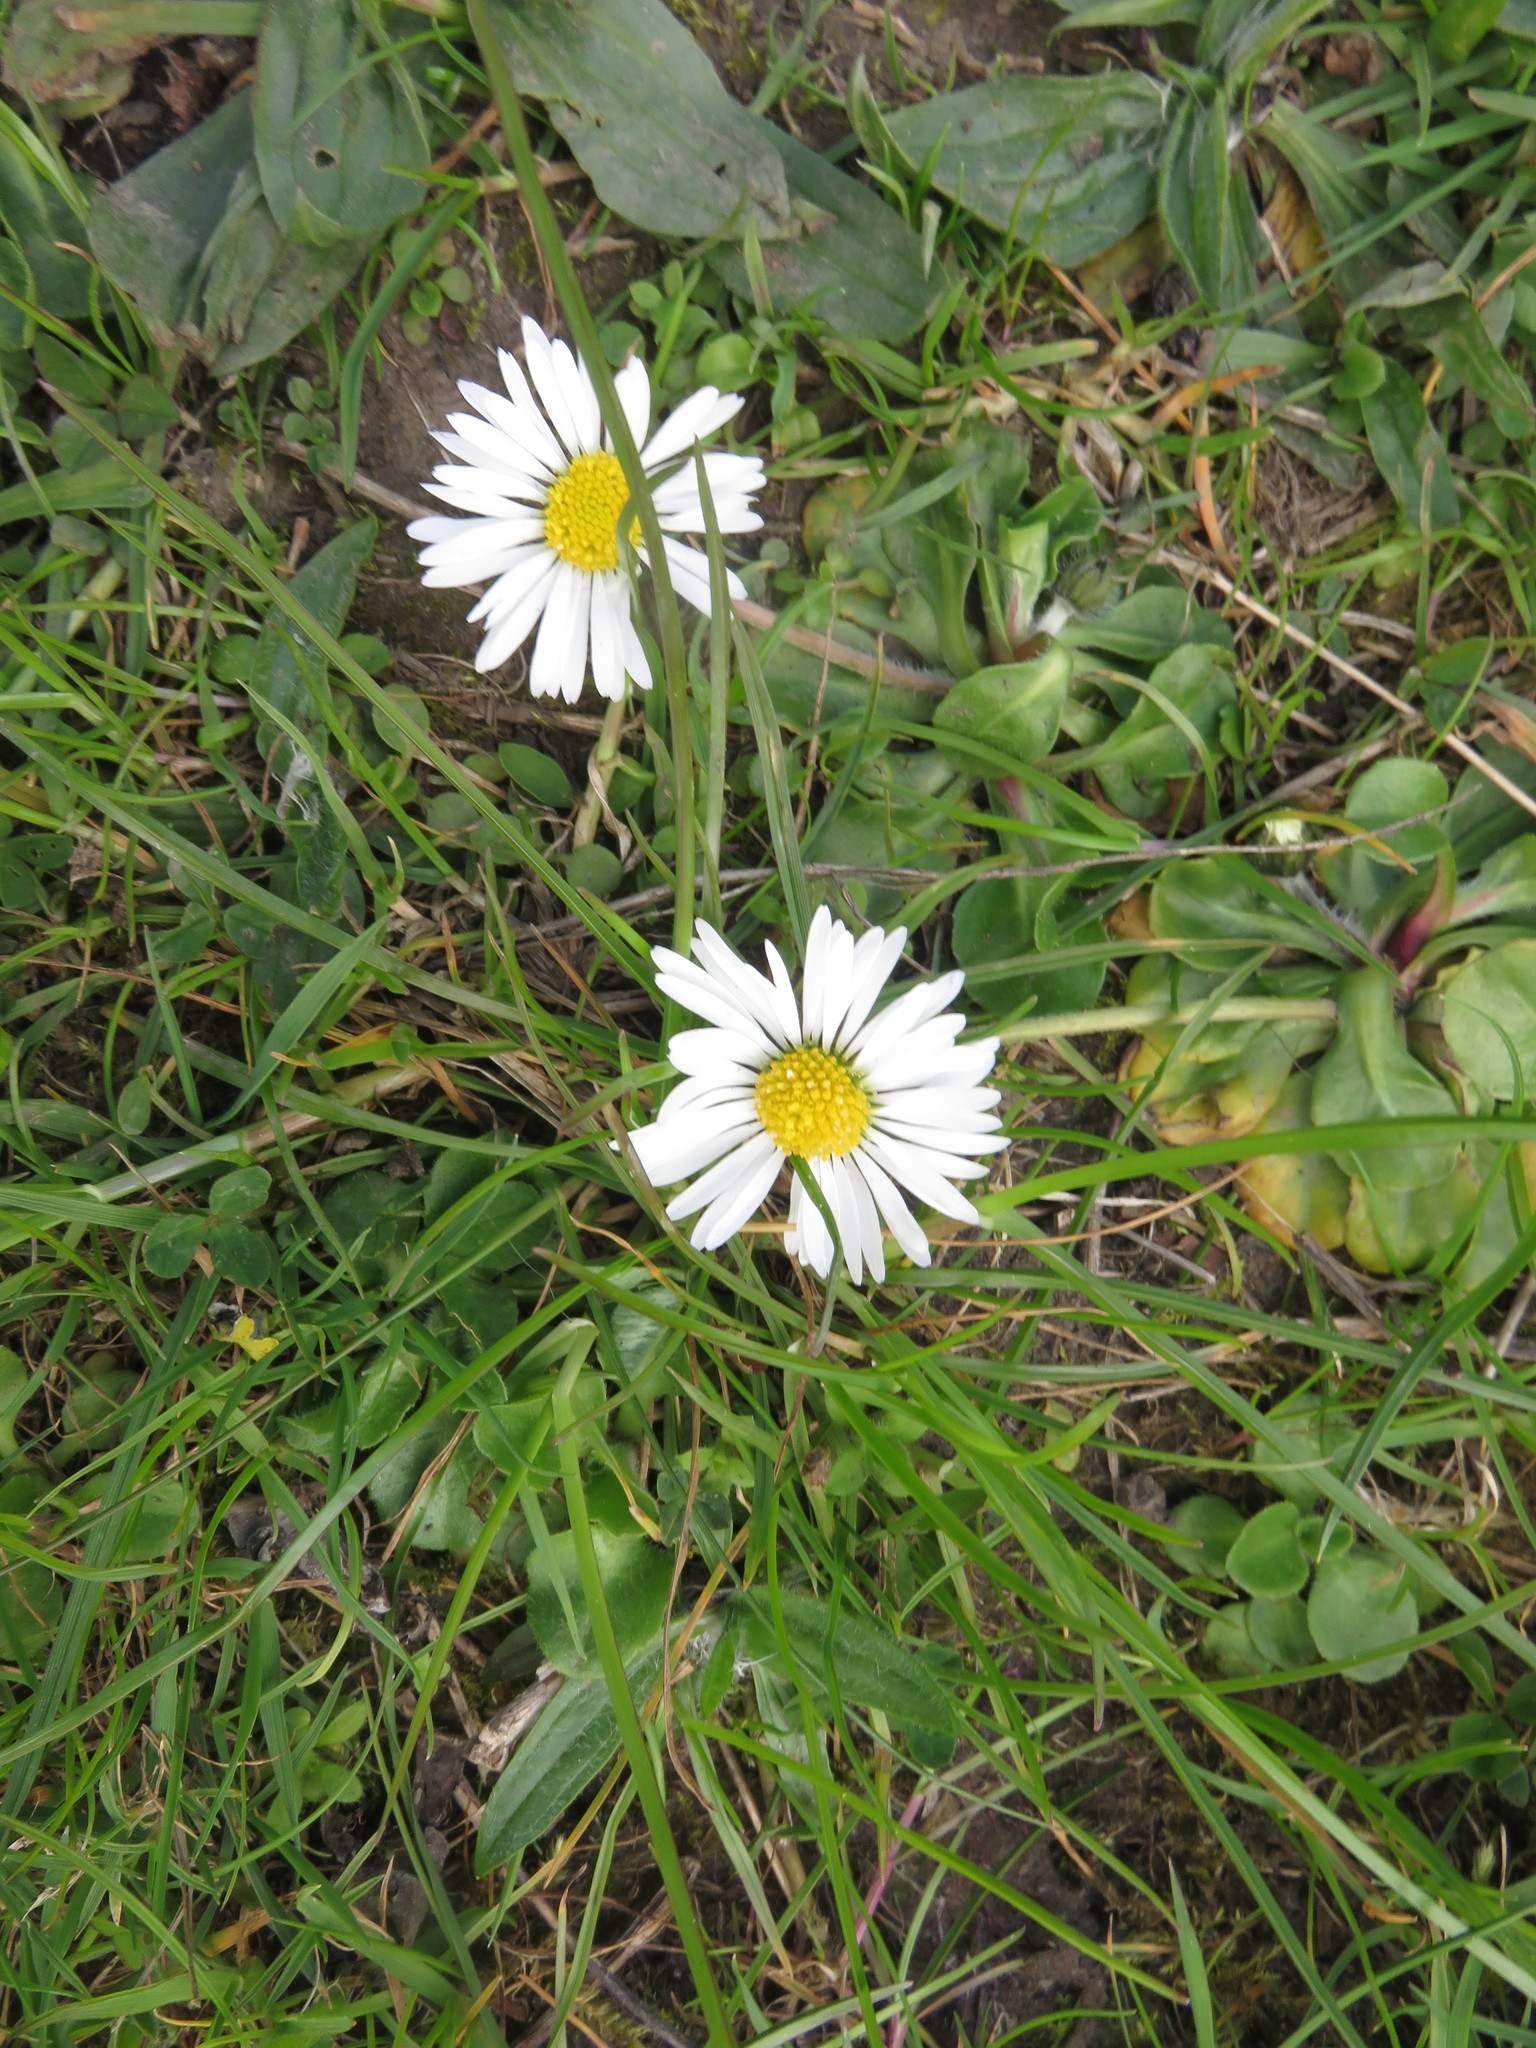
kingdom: Plantae
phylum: Tracheophyta
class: Magnoliopsida
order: Asterales
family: Asteraceae
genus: Bellis
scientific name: Bellis perennis
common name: Lawndaisy
